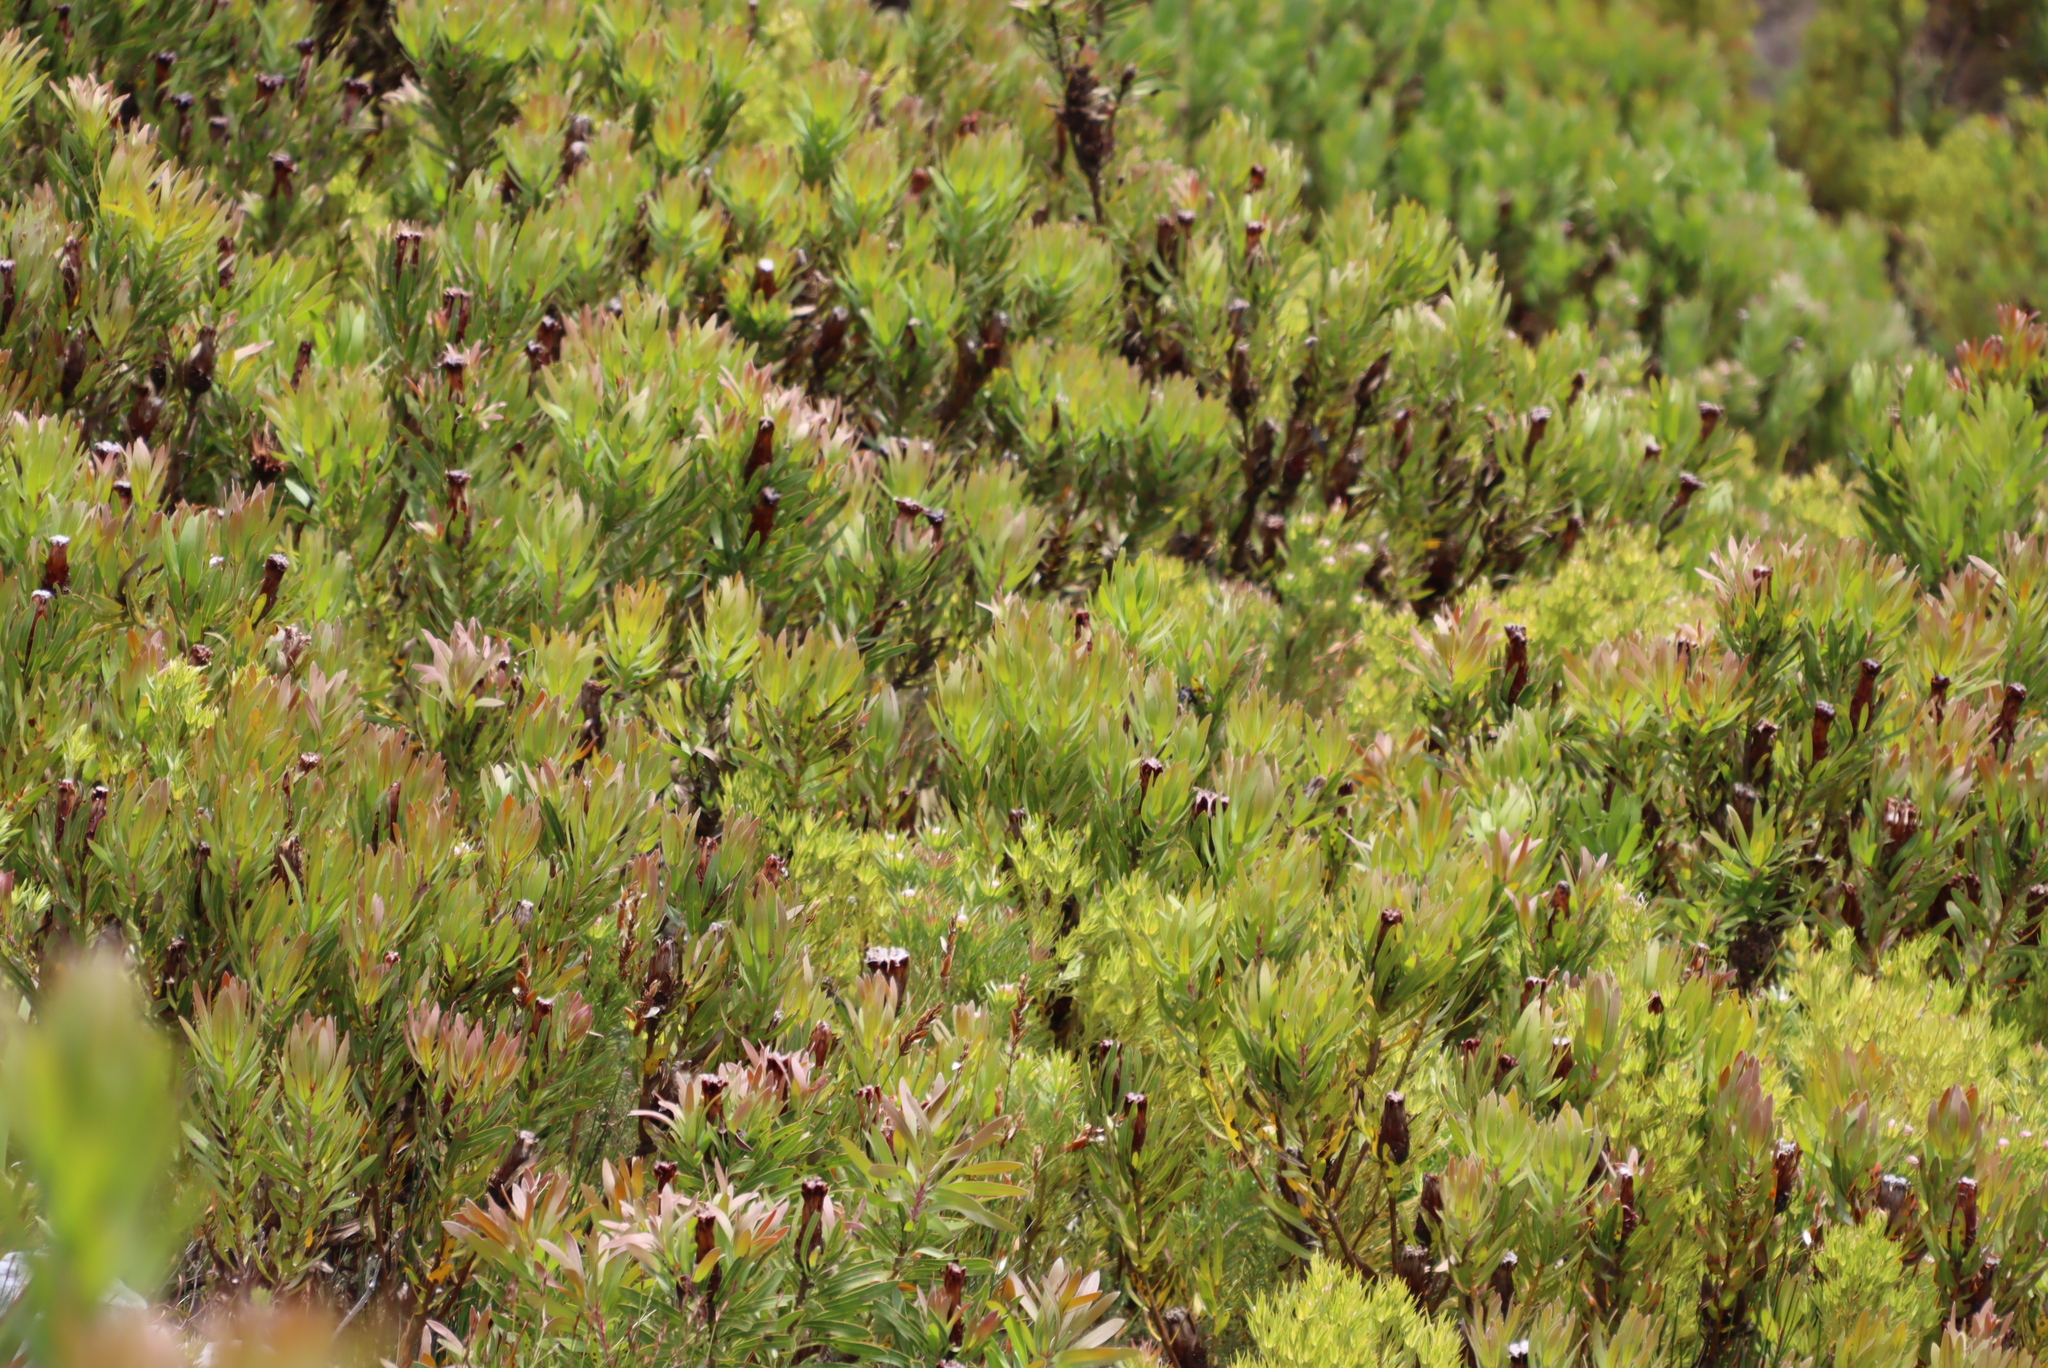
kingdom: Plantae
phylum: Tracheophyta
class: Magnoliopsida
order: Proteales
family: Proteaceae
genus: Protea
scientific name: Protea lepidocarpodendron
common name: Black-bearded protea
